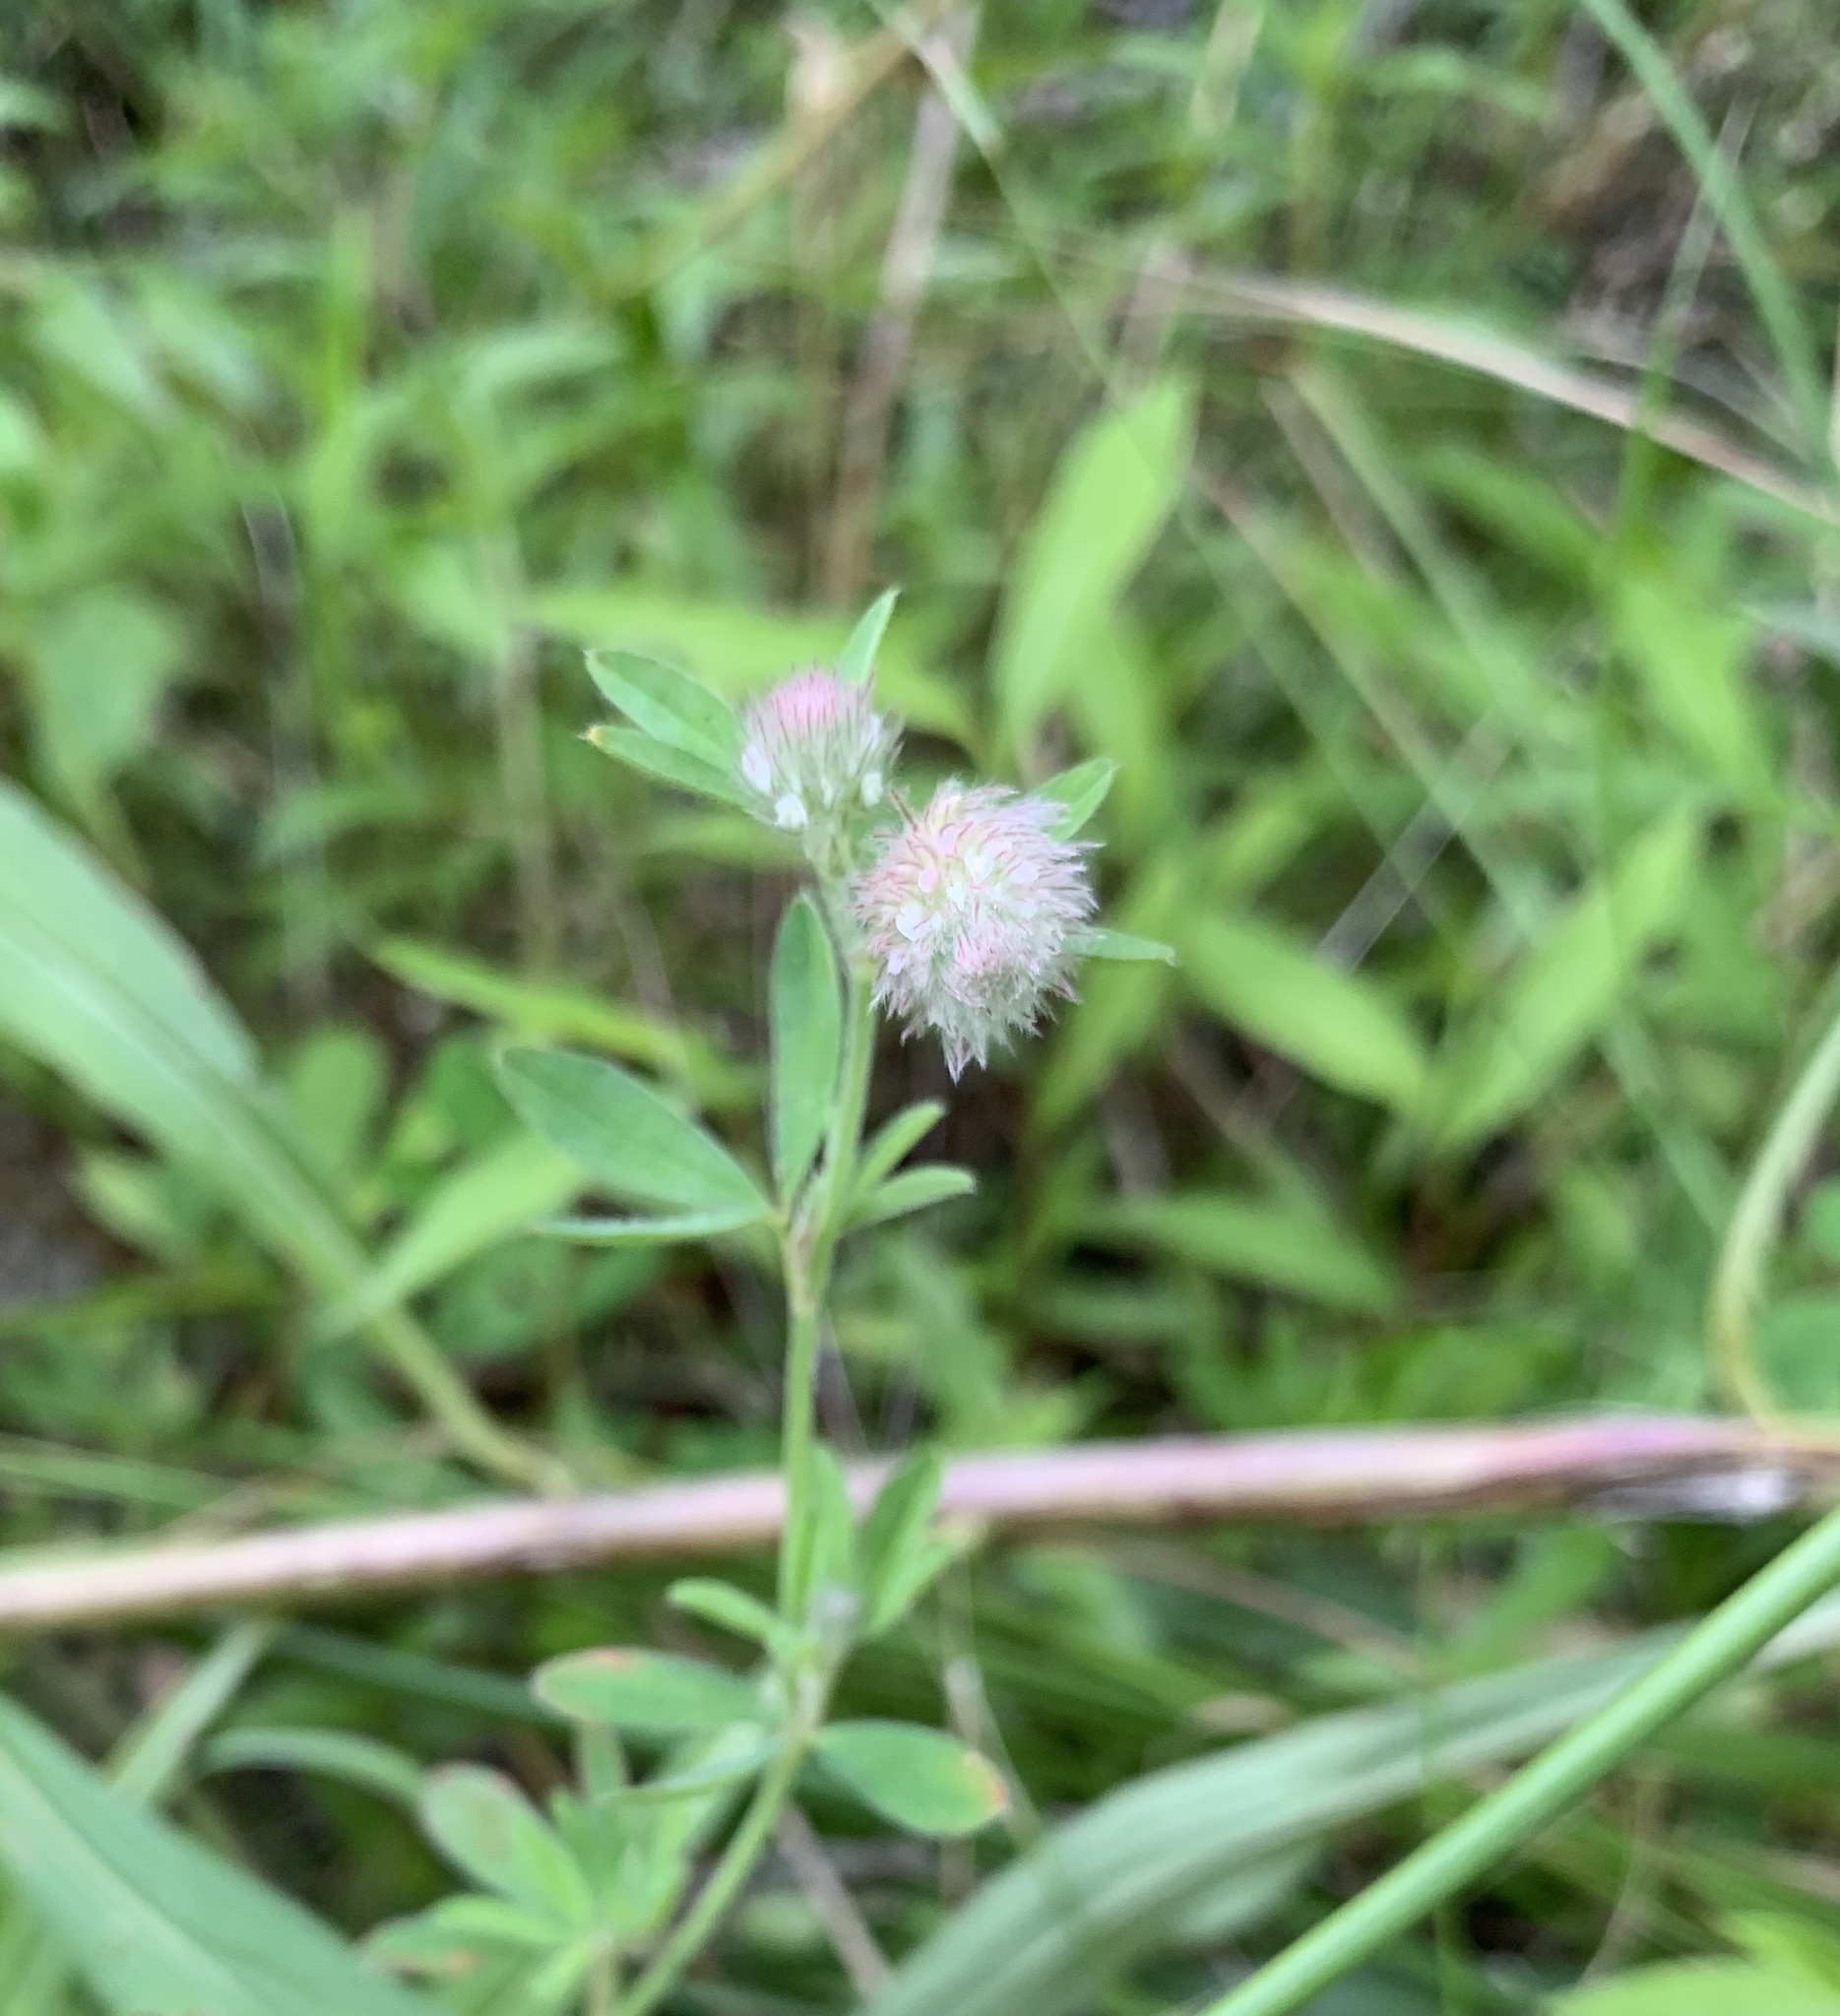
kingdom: Plantae
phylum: Tracheophyta
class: Magnoliopsida
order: Fabales
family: Fabaceae
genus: Trifolium
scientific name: Trifolium arvense
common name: Hare's-foot clover
